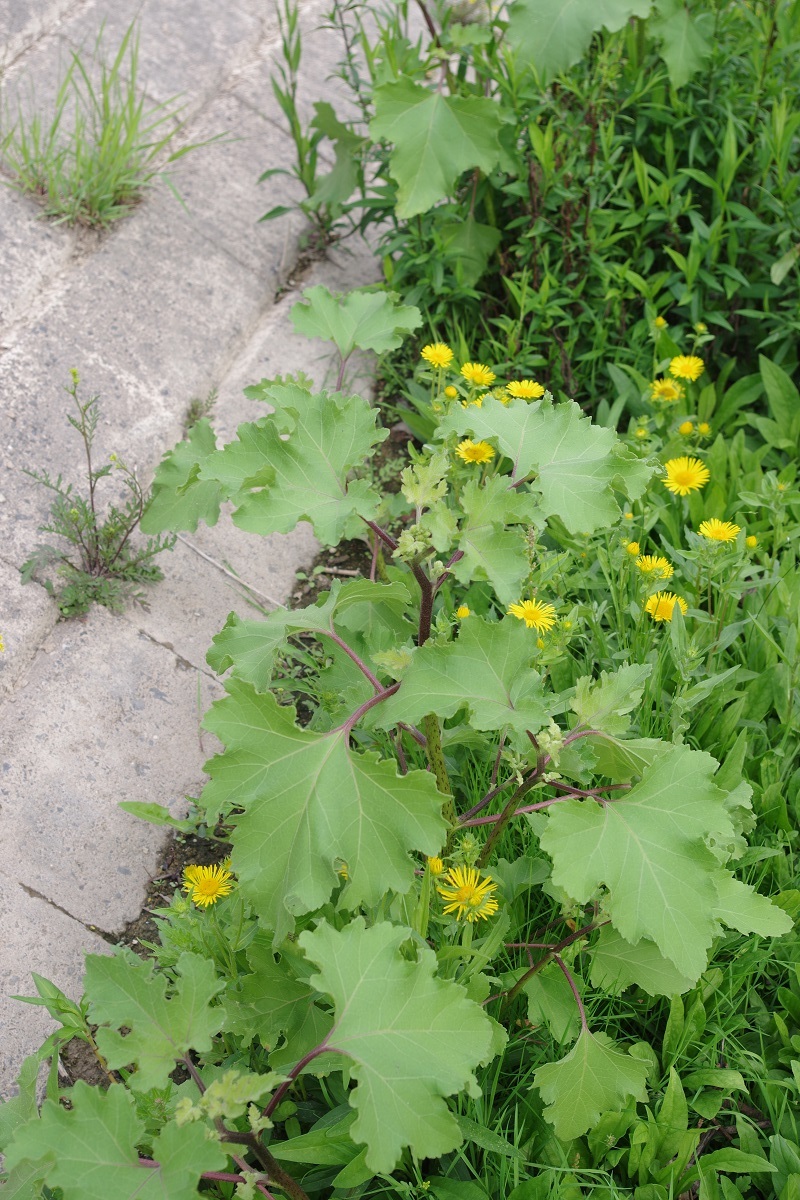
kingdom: Plantae
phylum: Tracheophyta
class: Magnoliopsida
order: Asterales
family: Asteraceae
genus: Xanthium
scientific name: Xanthium strumarium
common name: Rough cocklebur
